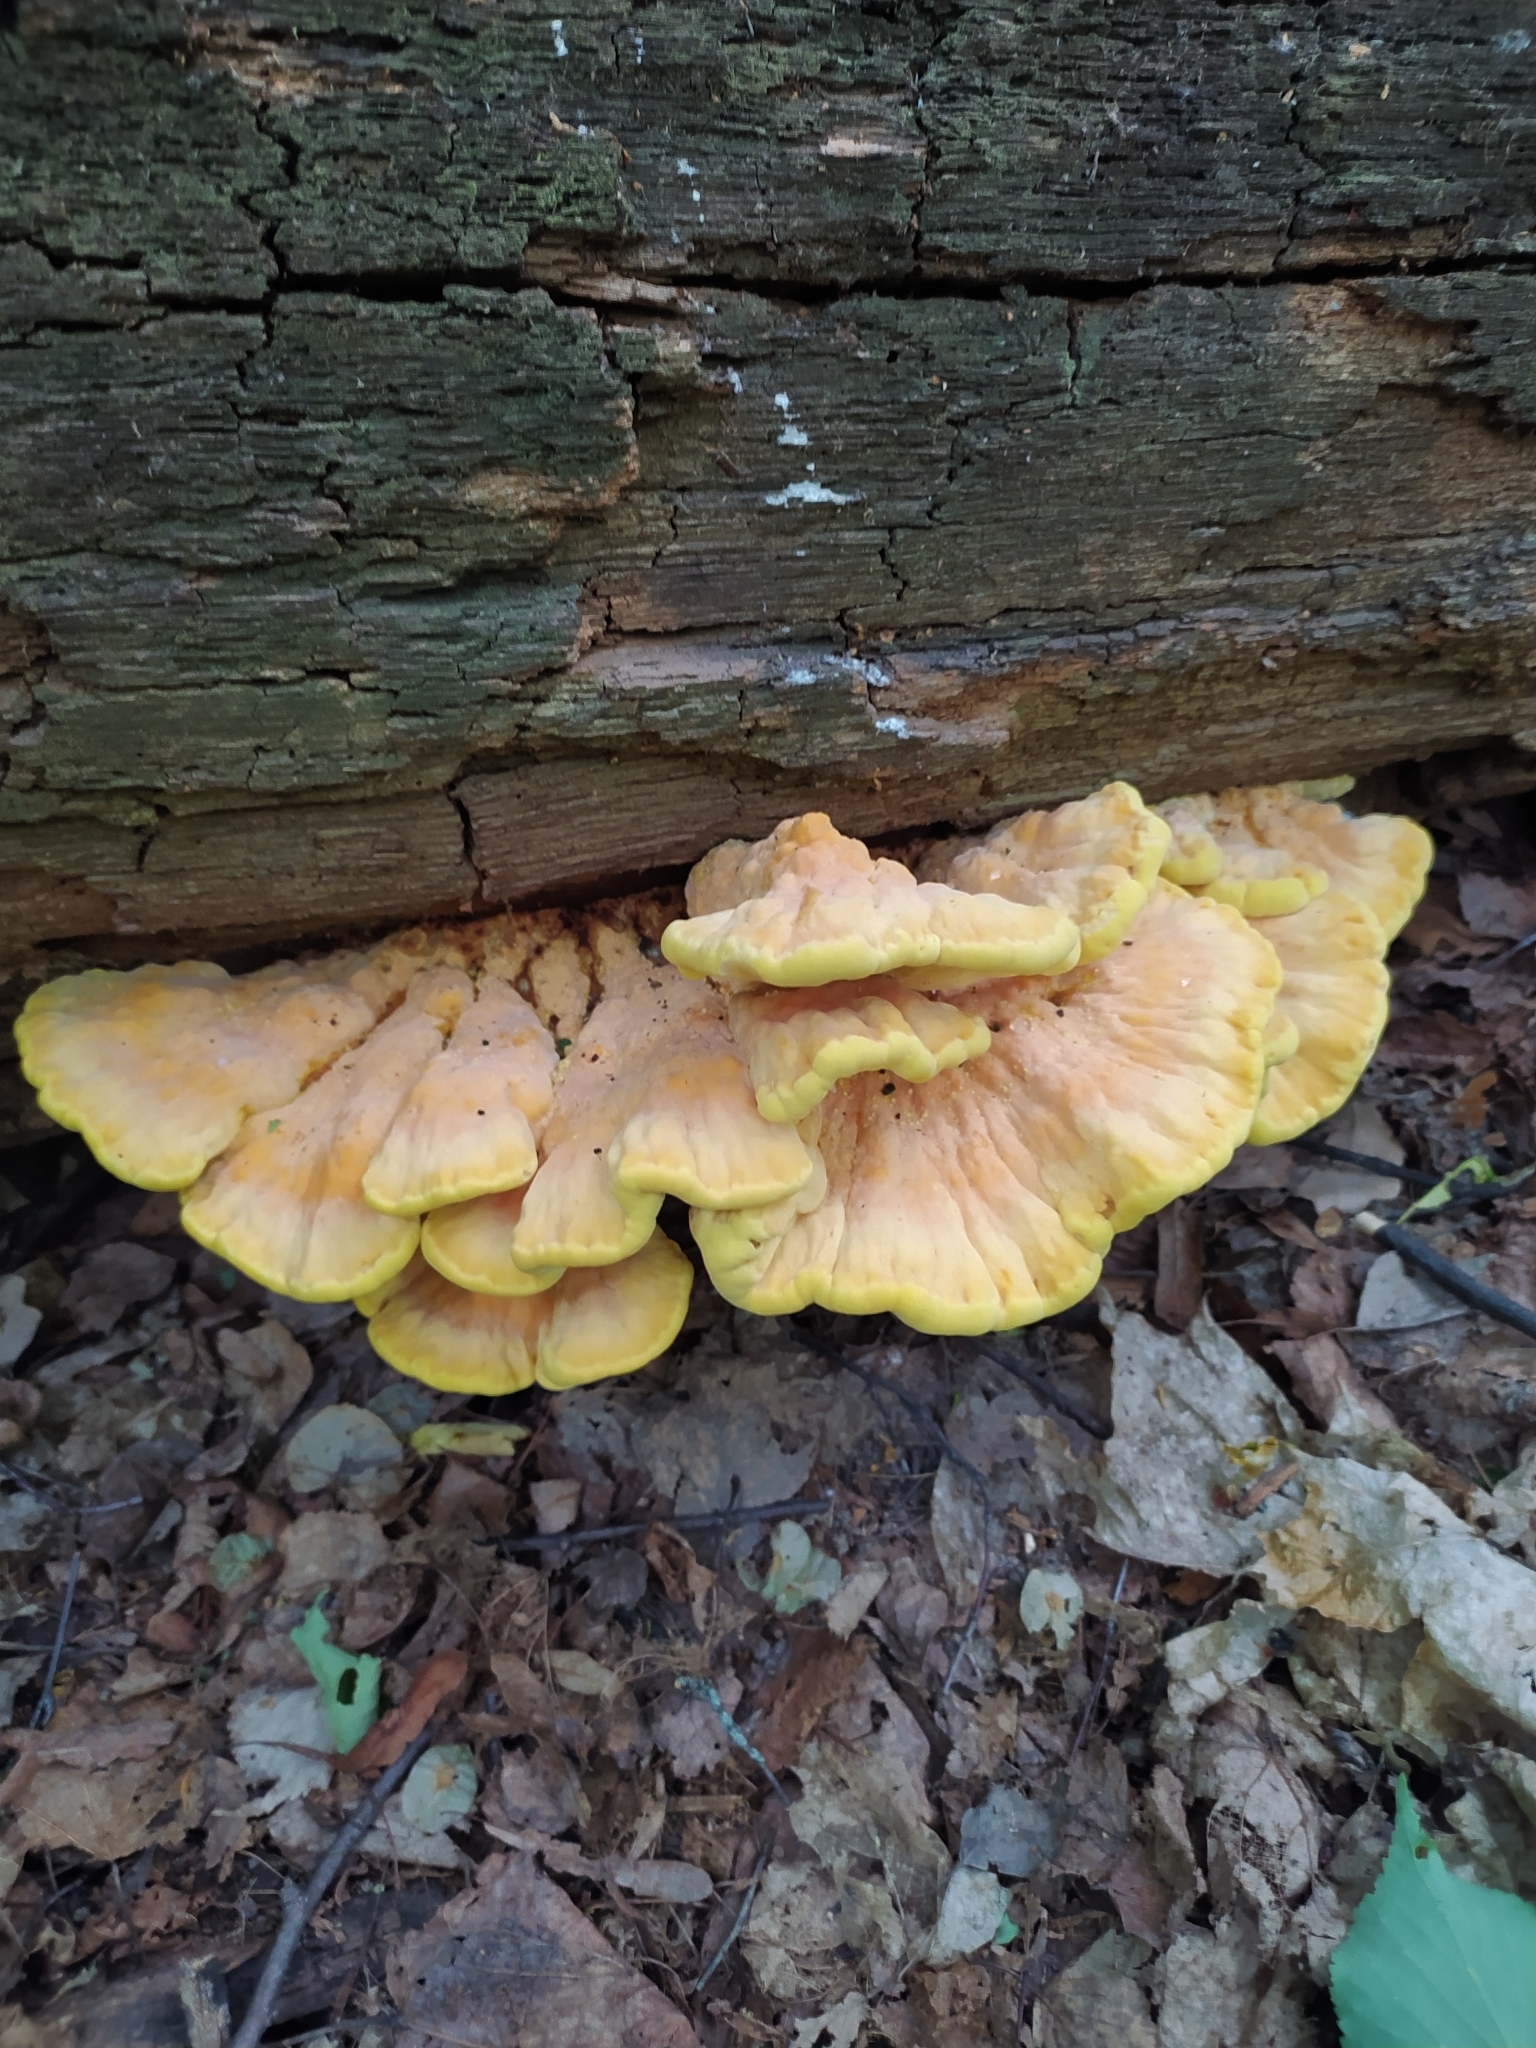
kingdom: Fungi
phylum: Basidiomycota
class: Agaricomycetes
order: Polyporales
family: Laetiporaceae
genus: Laetiporus
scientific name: Laetiporus sulphureus
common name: Chicken of the woods
